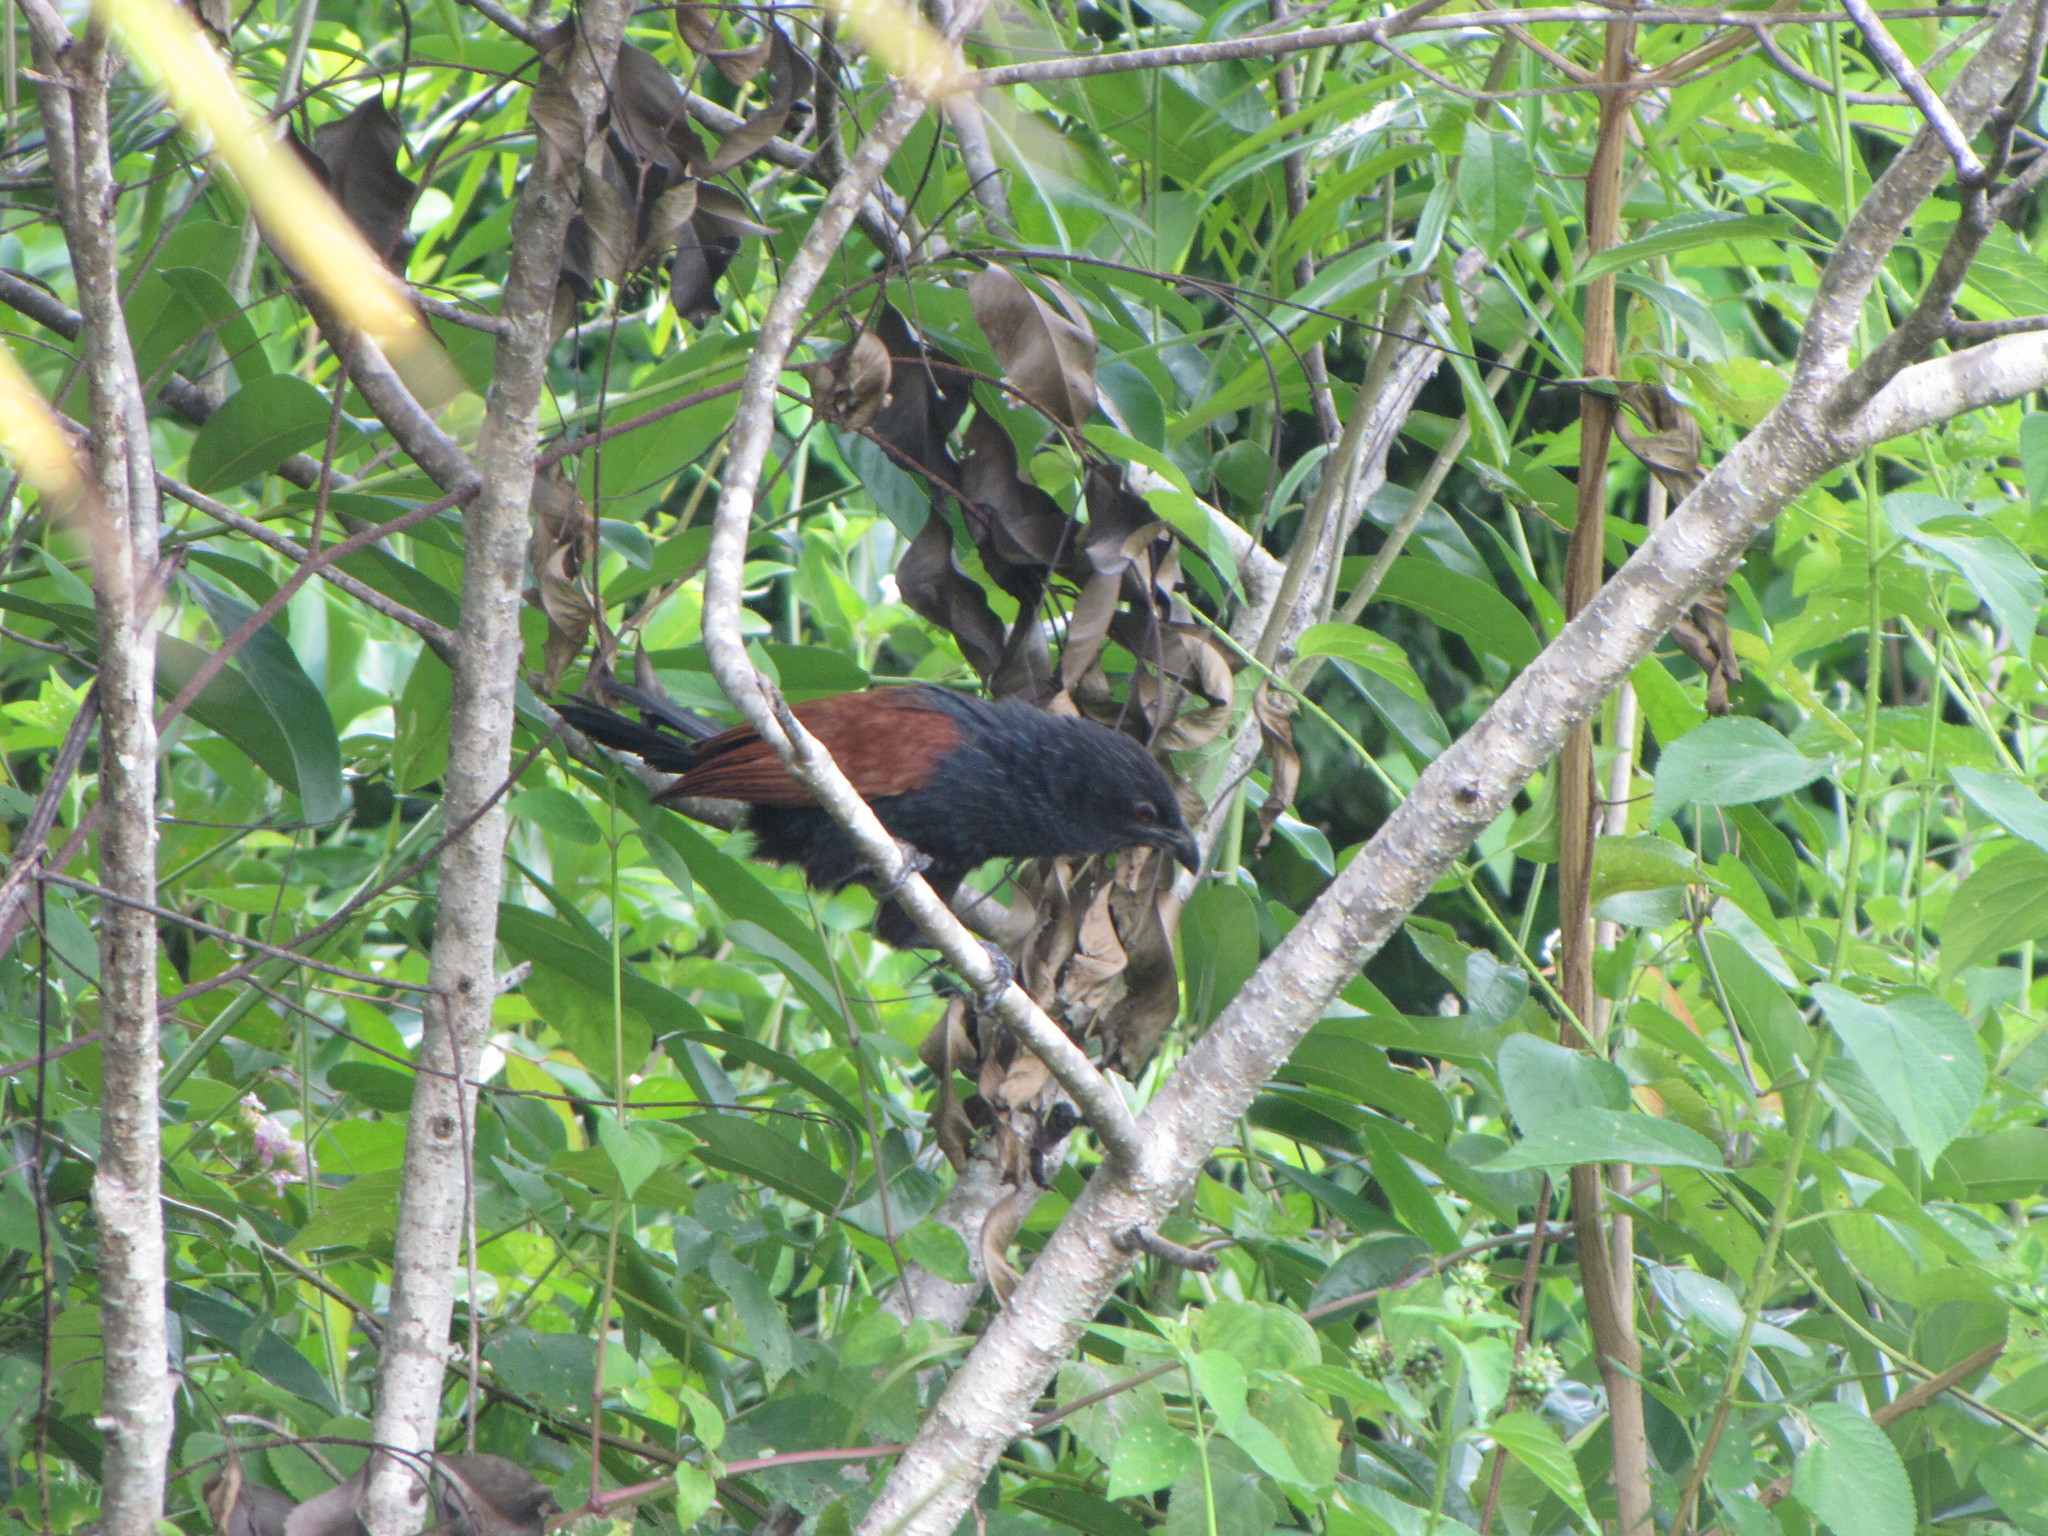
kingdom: Animalia
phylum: Chordata
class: Aves
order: Cuculiformes
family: Cuculidae
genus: Centropus
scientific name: Centropus toulou
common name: Malagasy coucal
